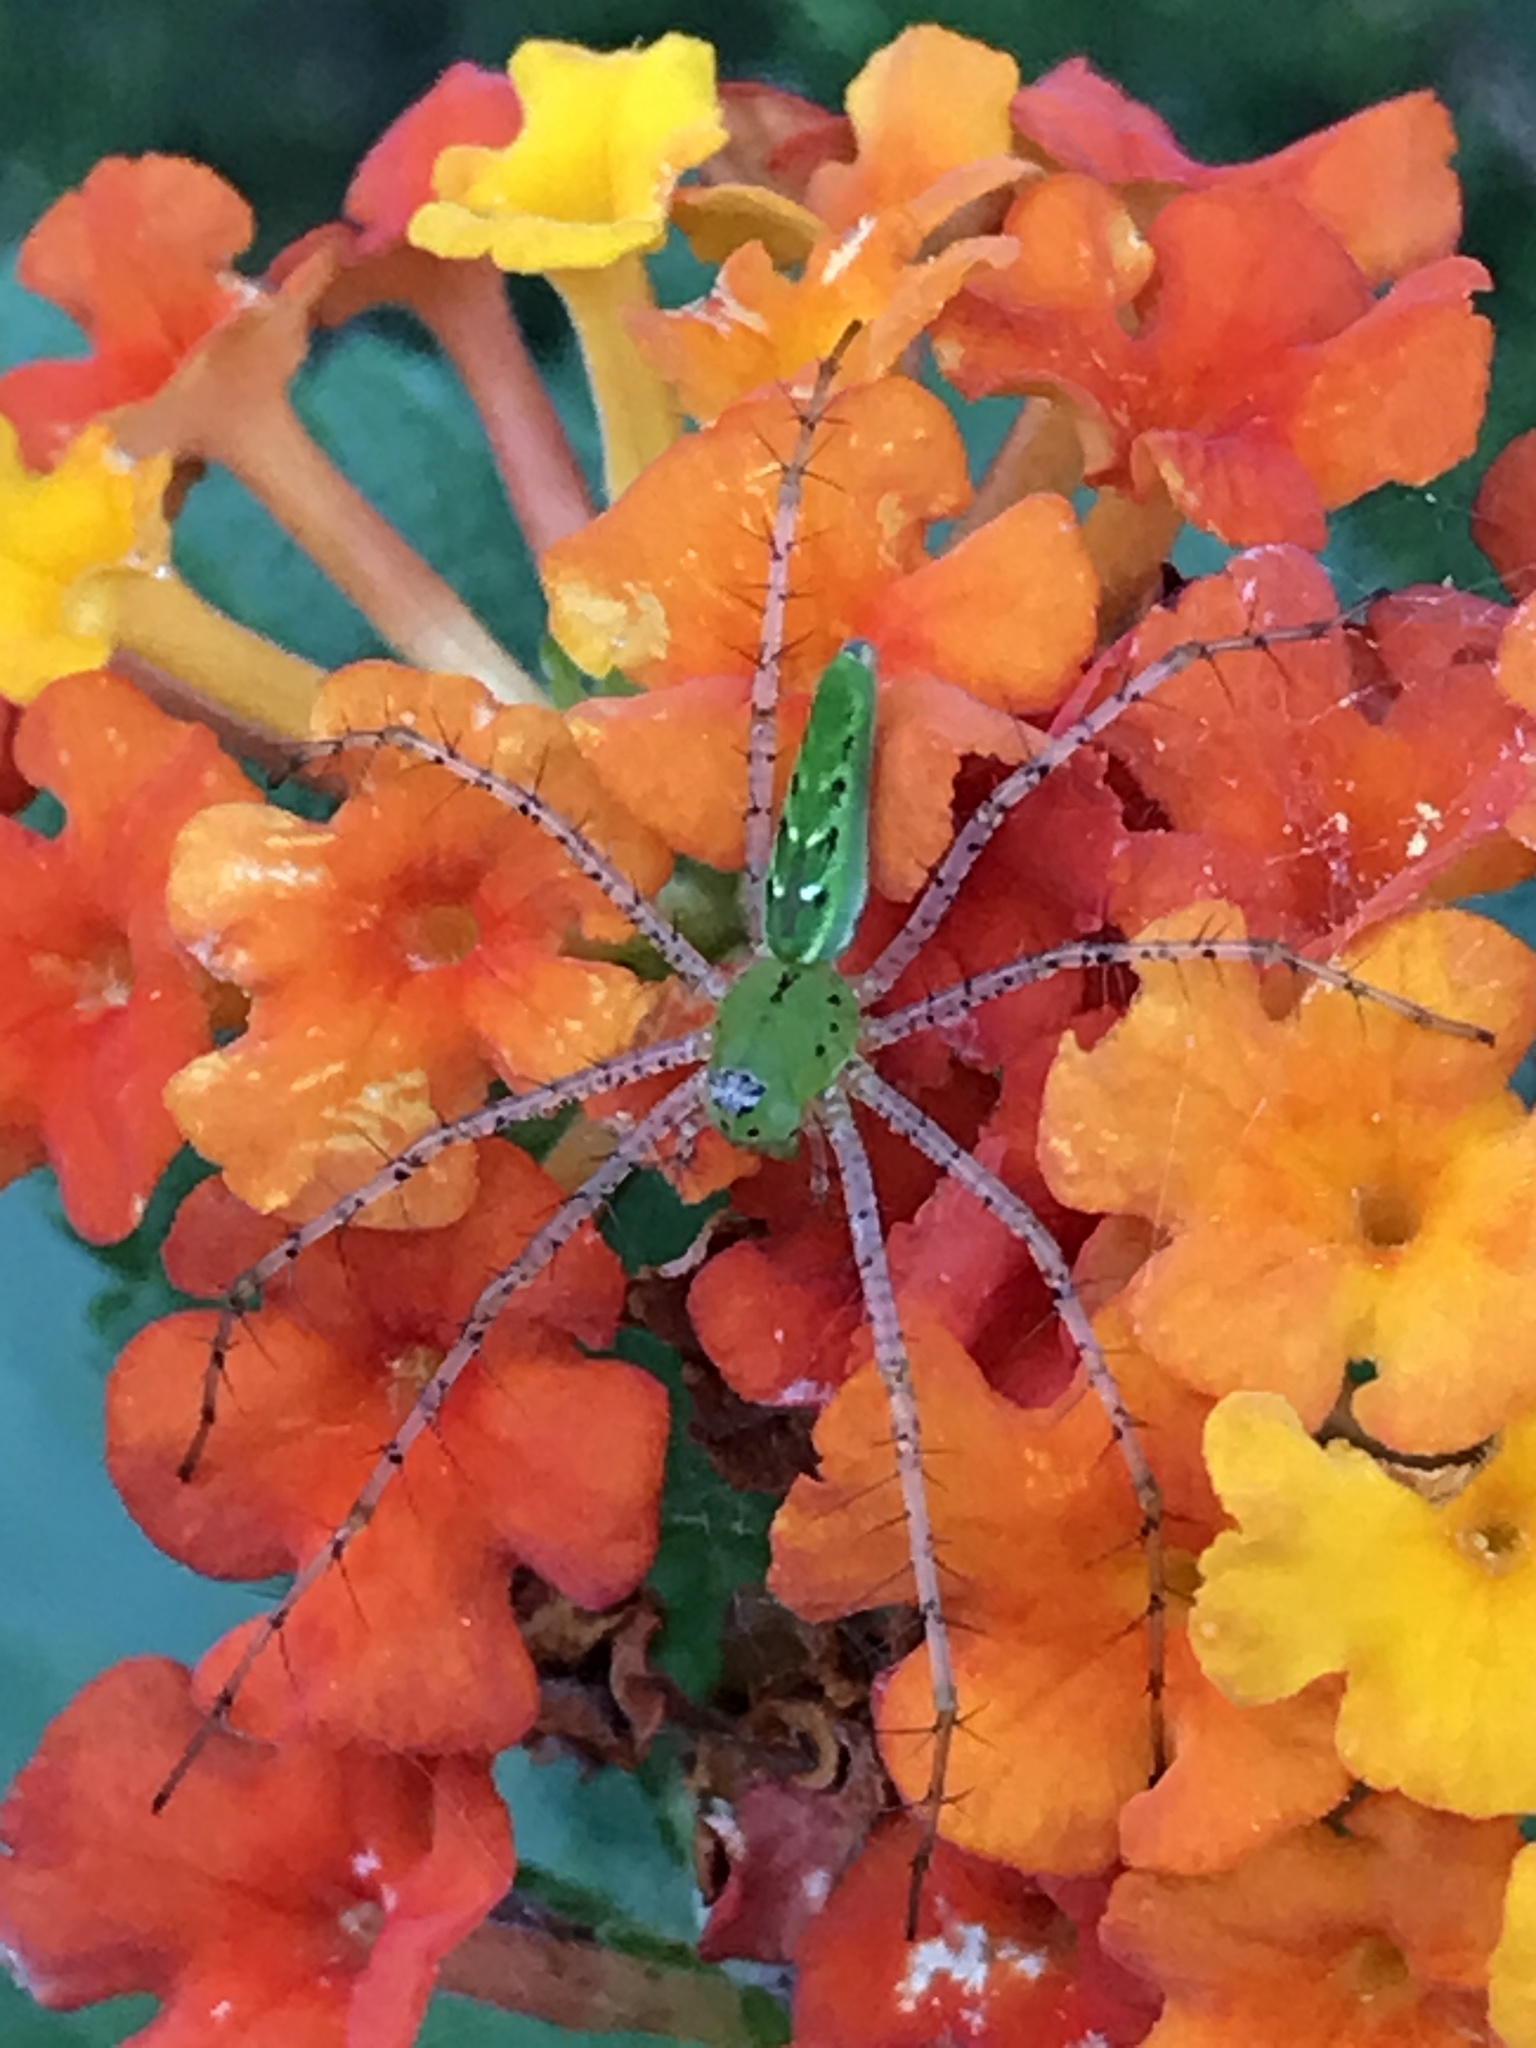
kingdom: Animalia
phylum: Arthropoda
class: Arachnida
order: Araneae
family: Oxyopidae
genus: Peucetia
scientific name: Peucetia viridans
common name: Lynx spiders
